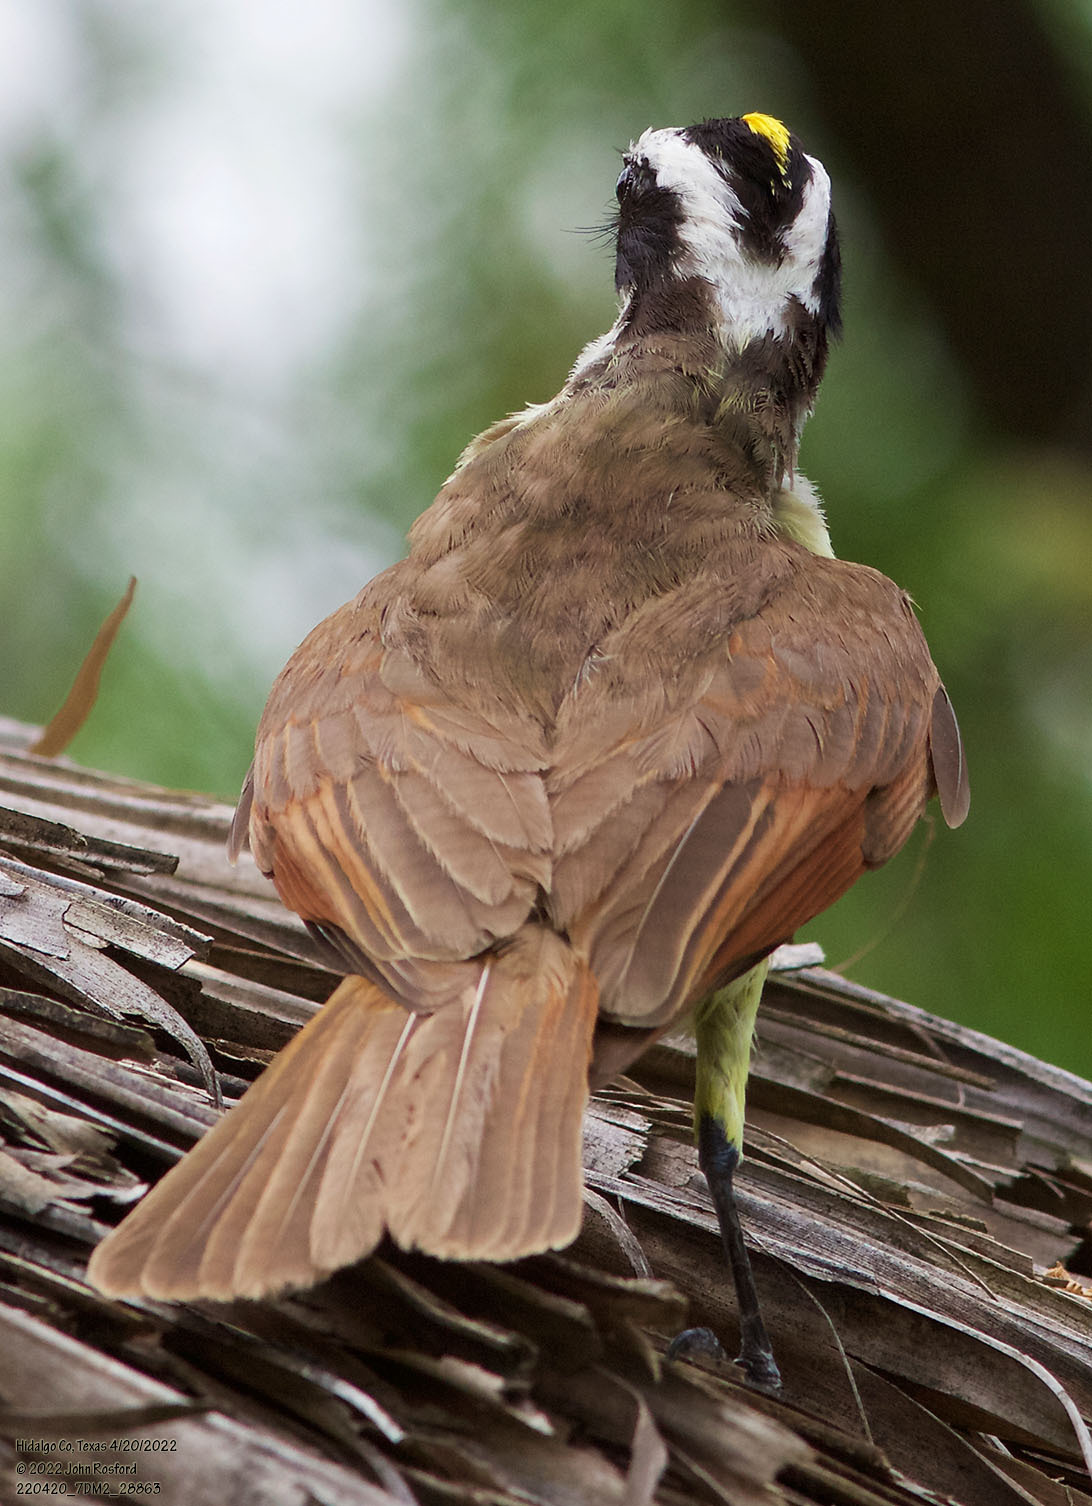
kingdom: Animalia
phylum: Chordata
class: Aves
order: Passeriformes
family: Tyrannidae
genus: Pitangus
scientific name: Pitangus sulphuratus
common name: Great kiskadee
